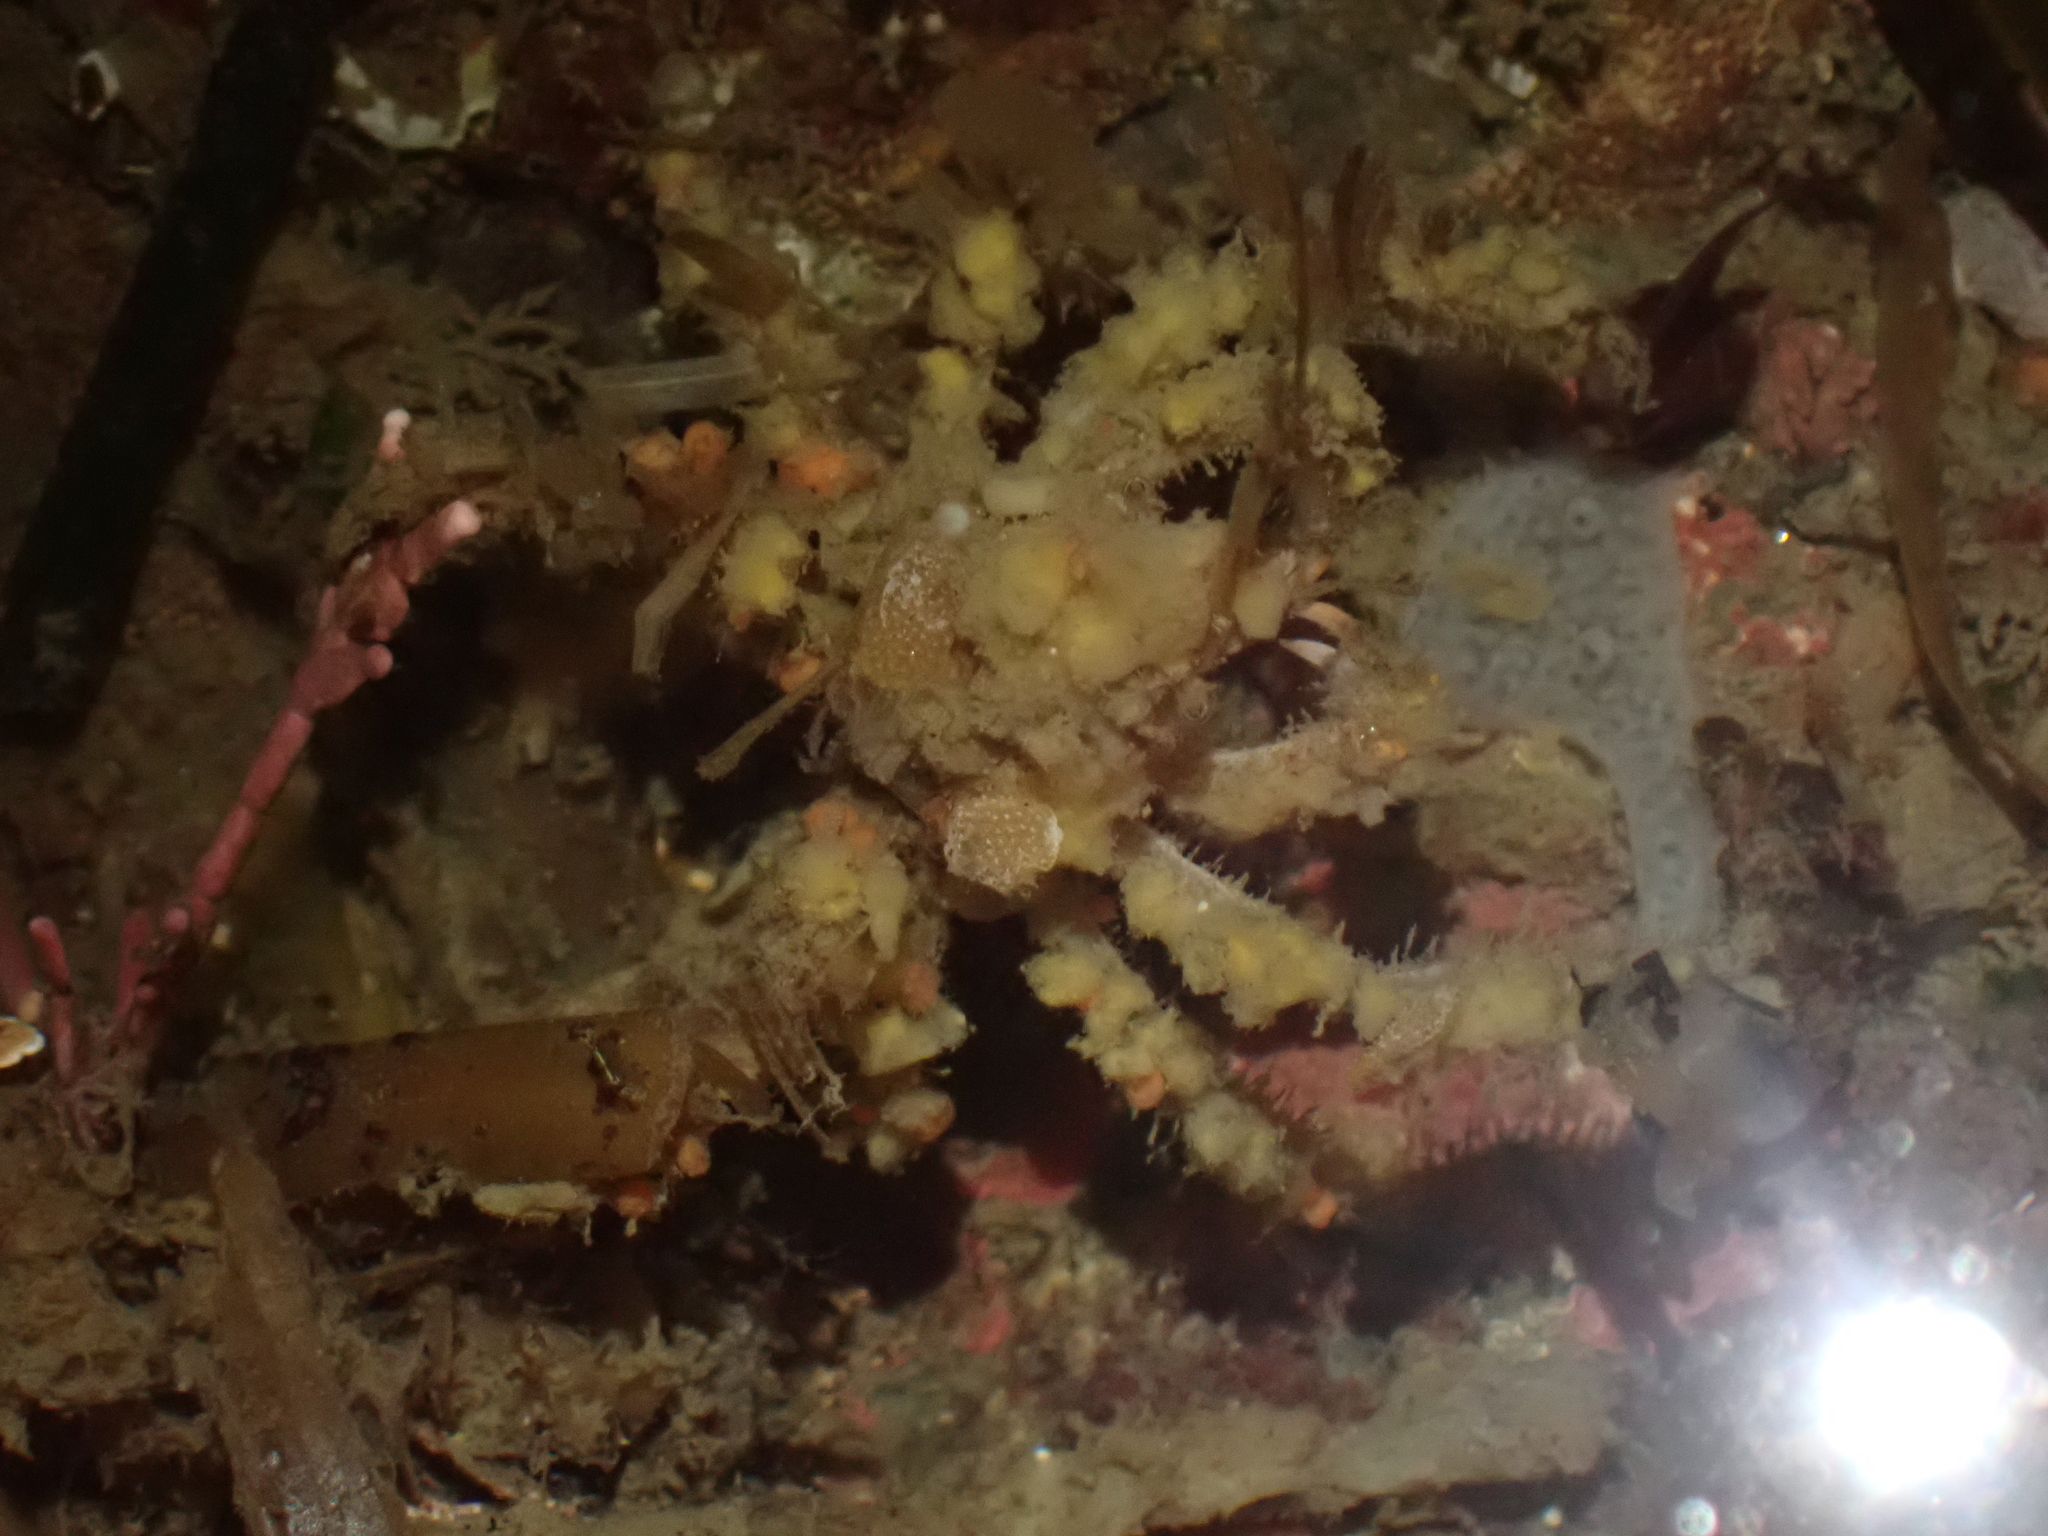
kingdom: Animalia
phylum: Arthropoda
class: Malacostraca
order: Decapoda
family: Oregoniidae
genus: Oregonia
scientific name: Oregonia gracilis
